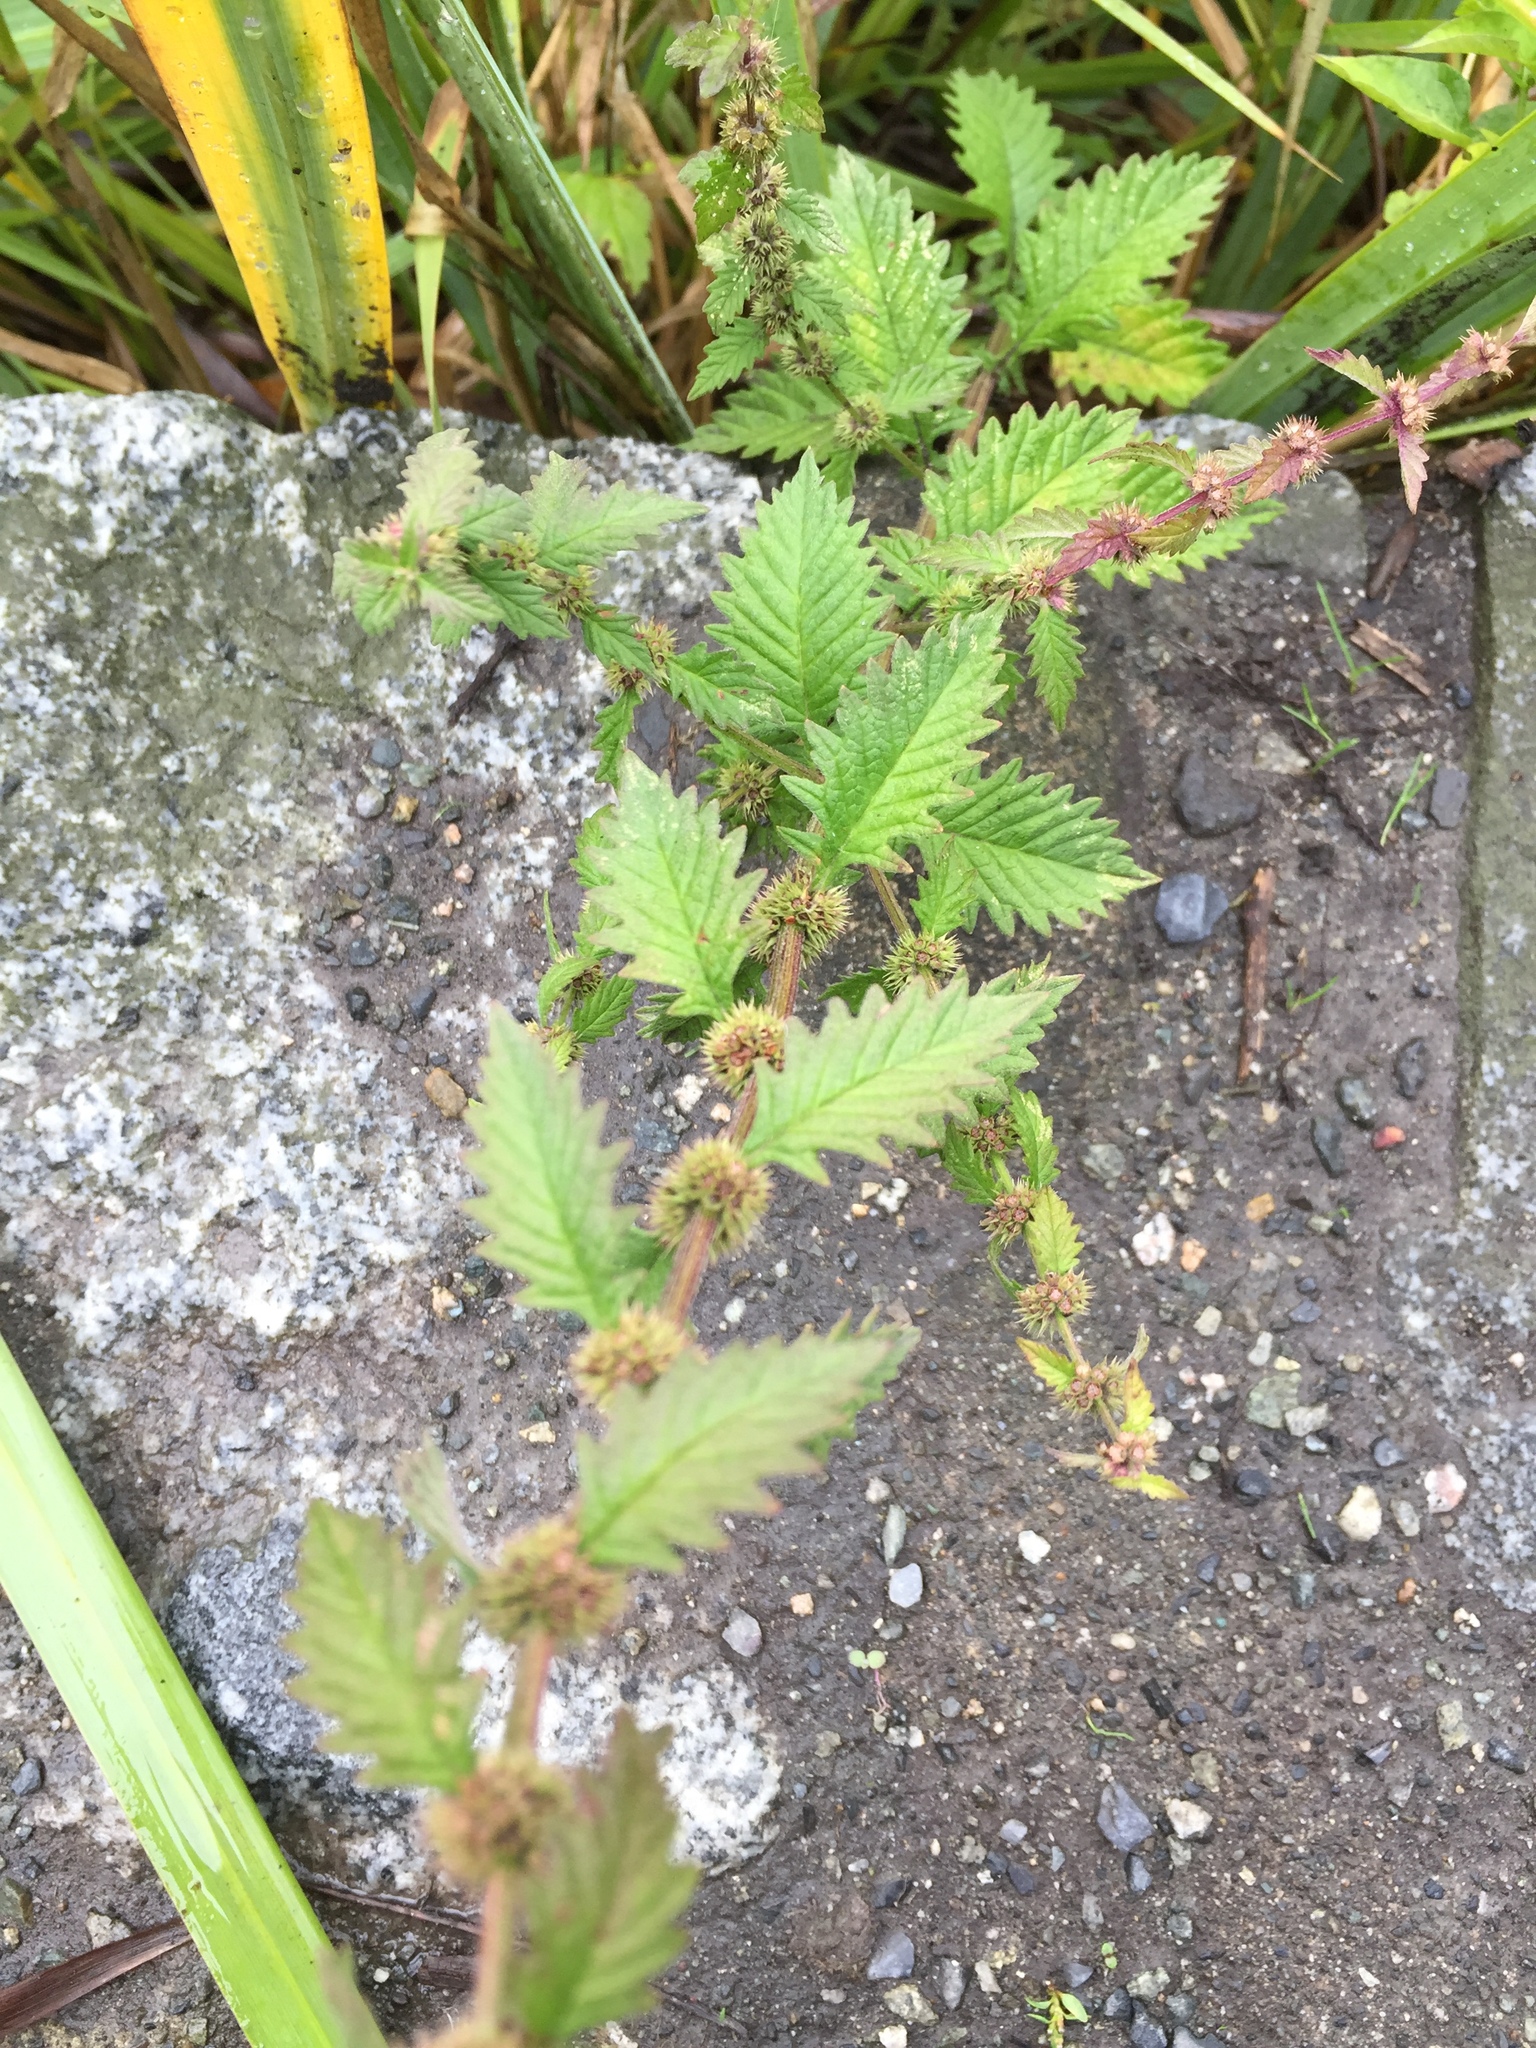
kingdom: Plantae
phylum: Tracheophyta
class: Magnoliopsida
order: Lamiales
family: Lamiaceae
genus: Lycopus
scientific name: Lycopus europaeus
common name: European bugleweed
